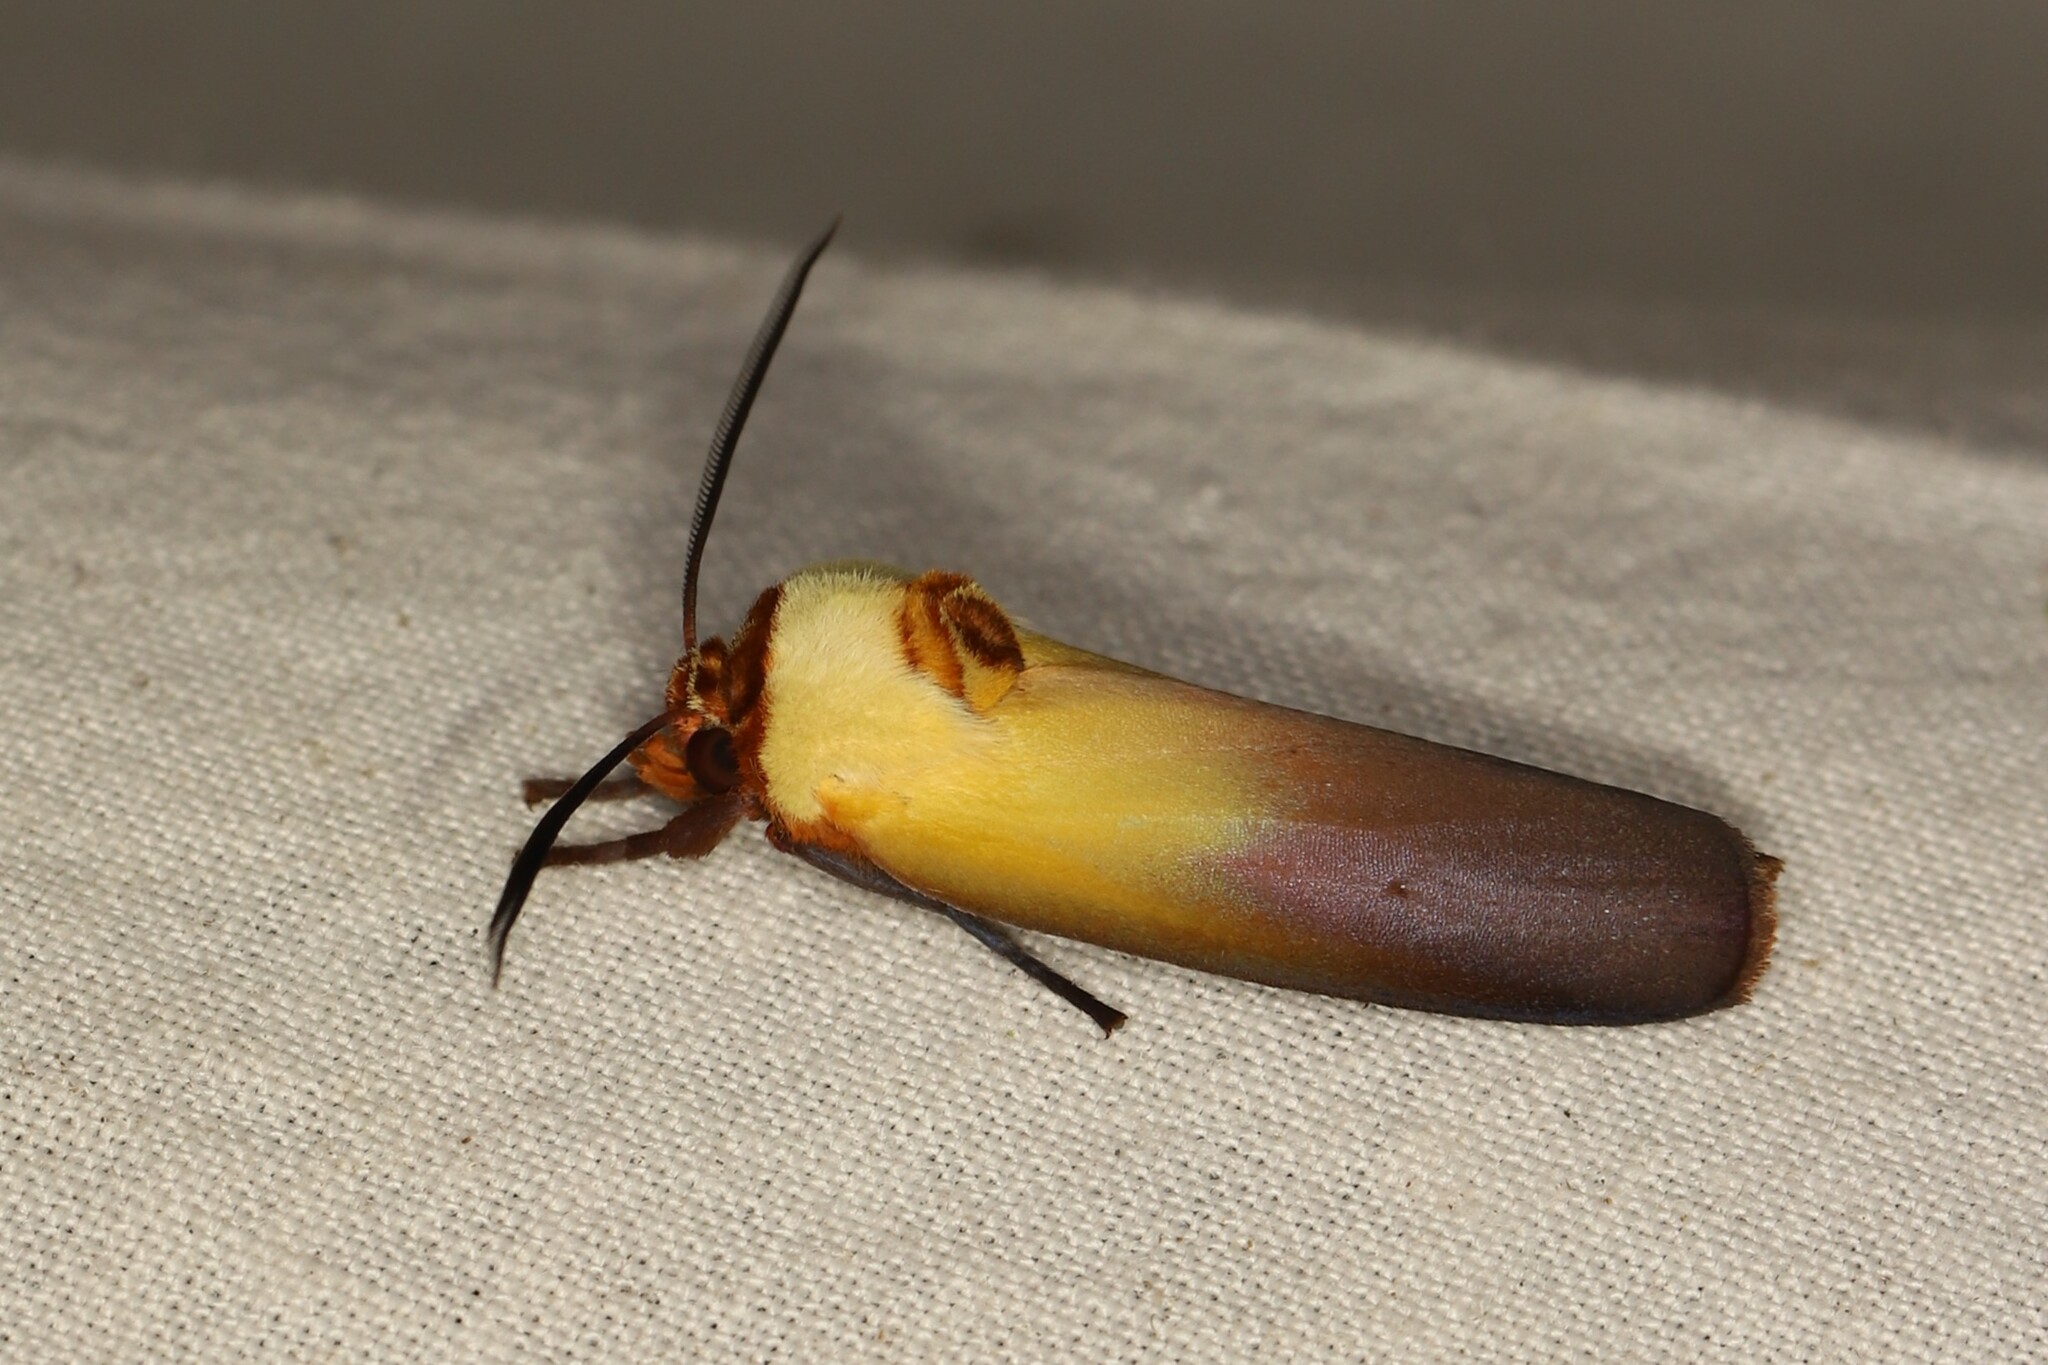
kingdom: Animalia
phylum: Arthropoda
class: Insecta
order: Lepidoptera
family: Erebidae
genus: Halysidota
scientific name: Halysidota semibrunnea
